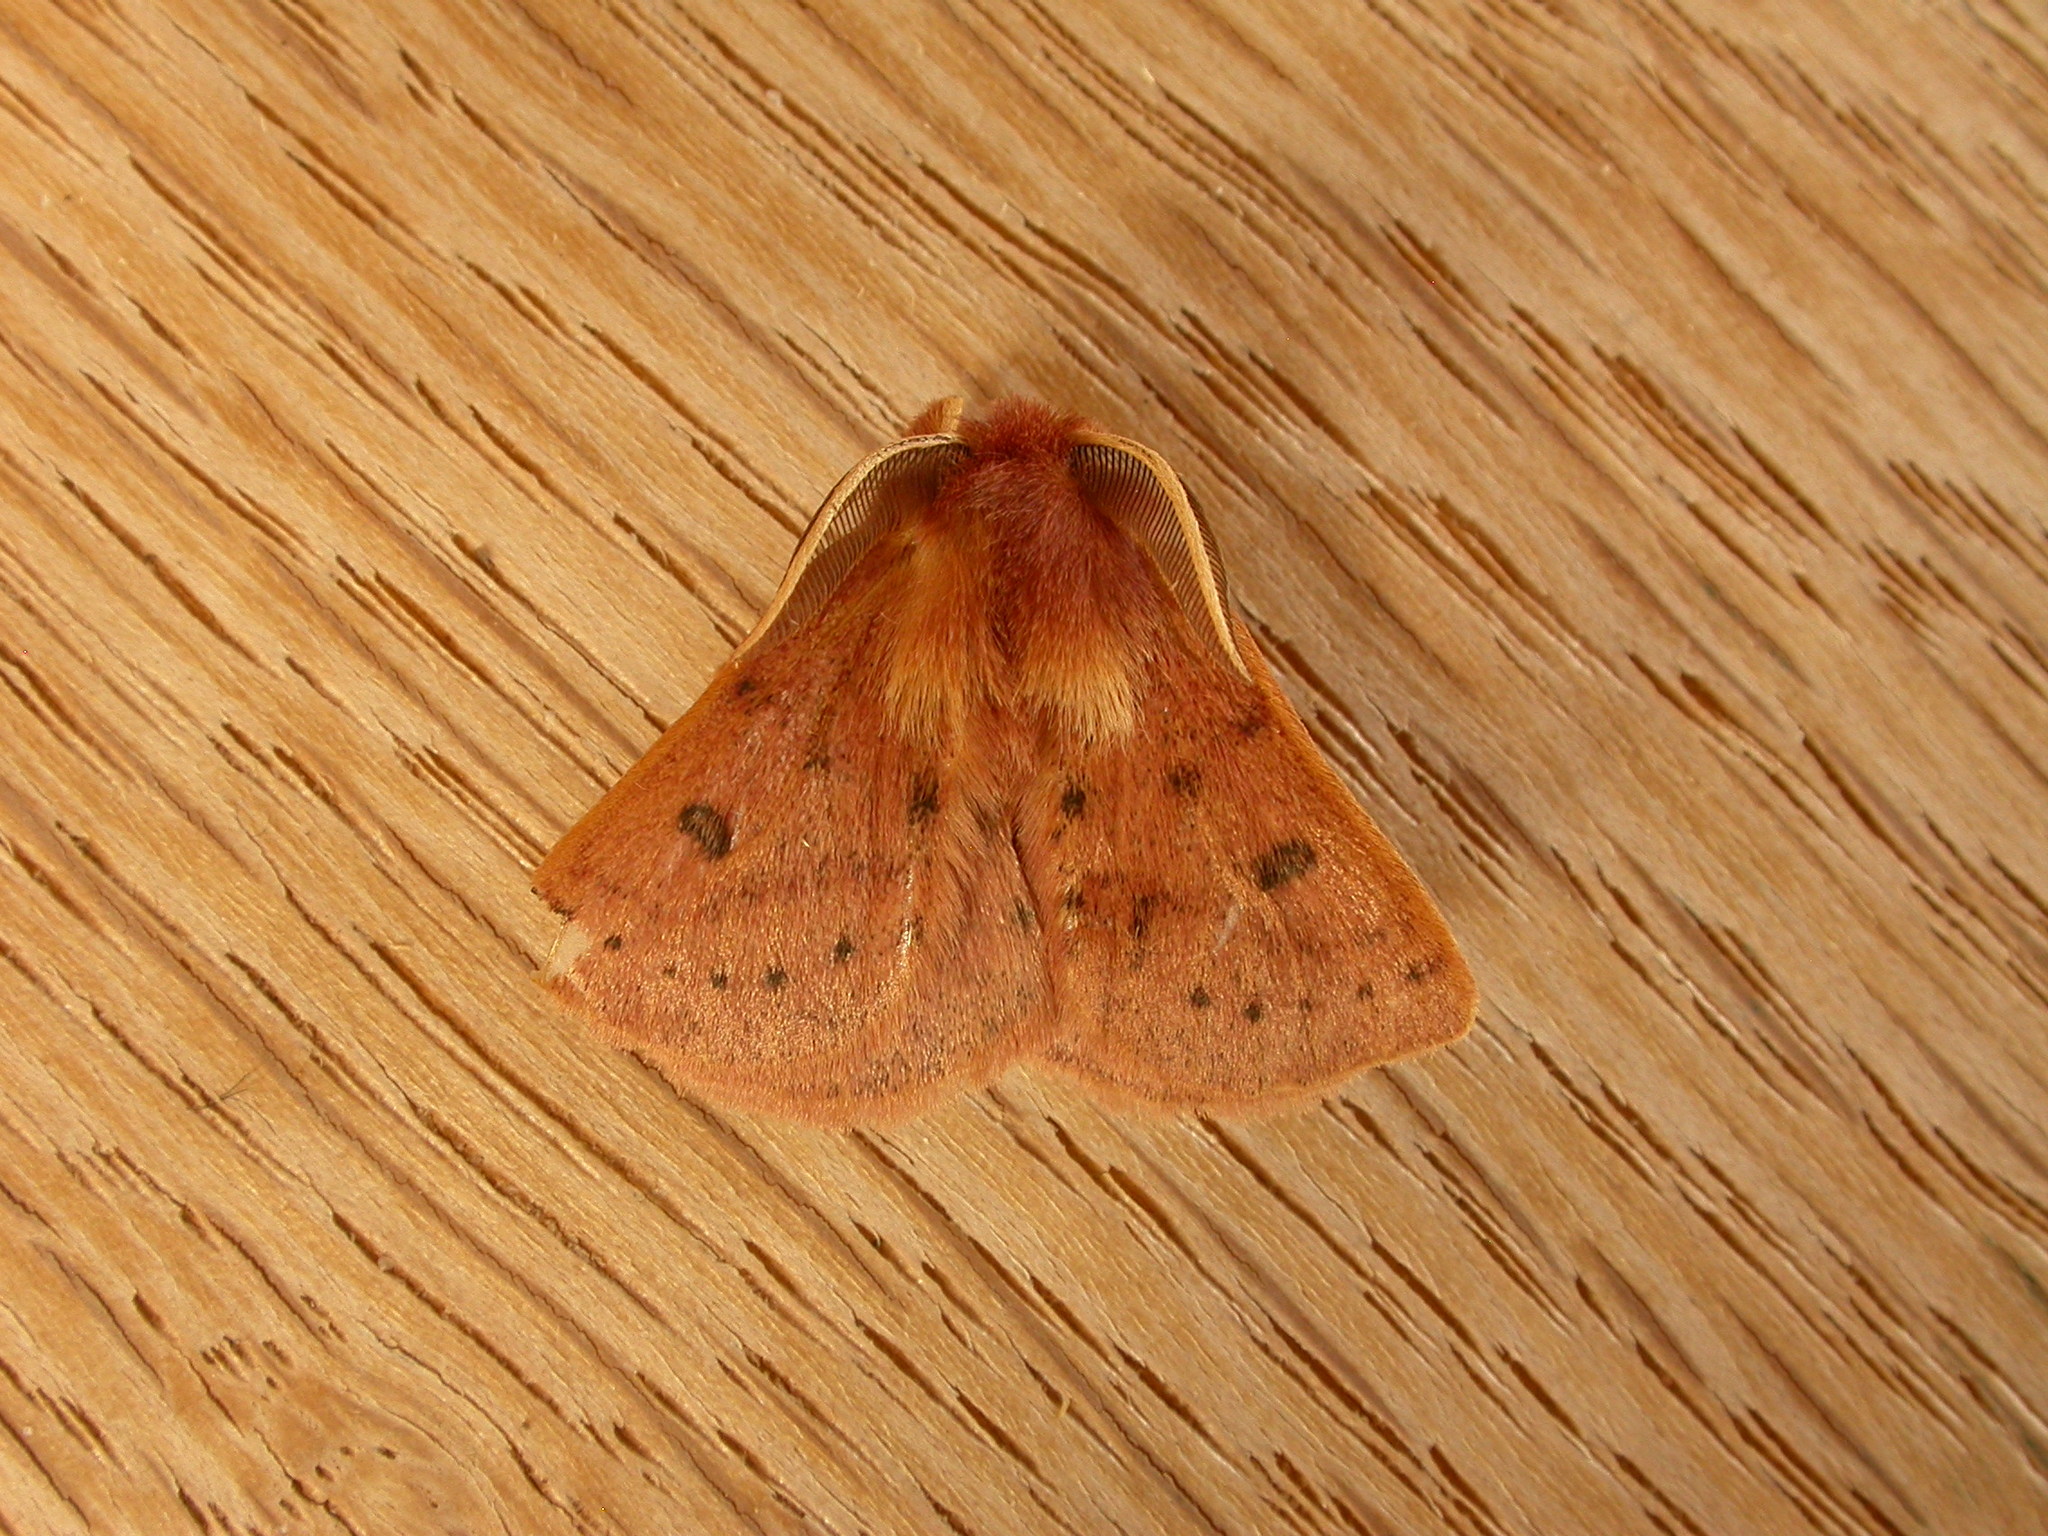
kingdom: Animalia
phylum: Arthropoda
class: Insecta
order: Lepidoptera
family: Anthelidae
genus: Anthela
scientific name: Anthela ferruginosa
